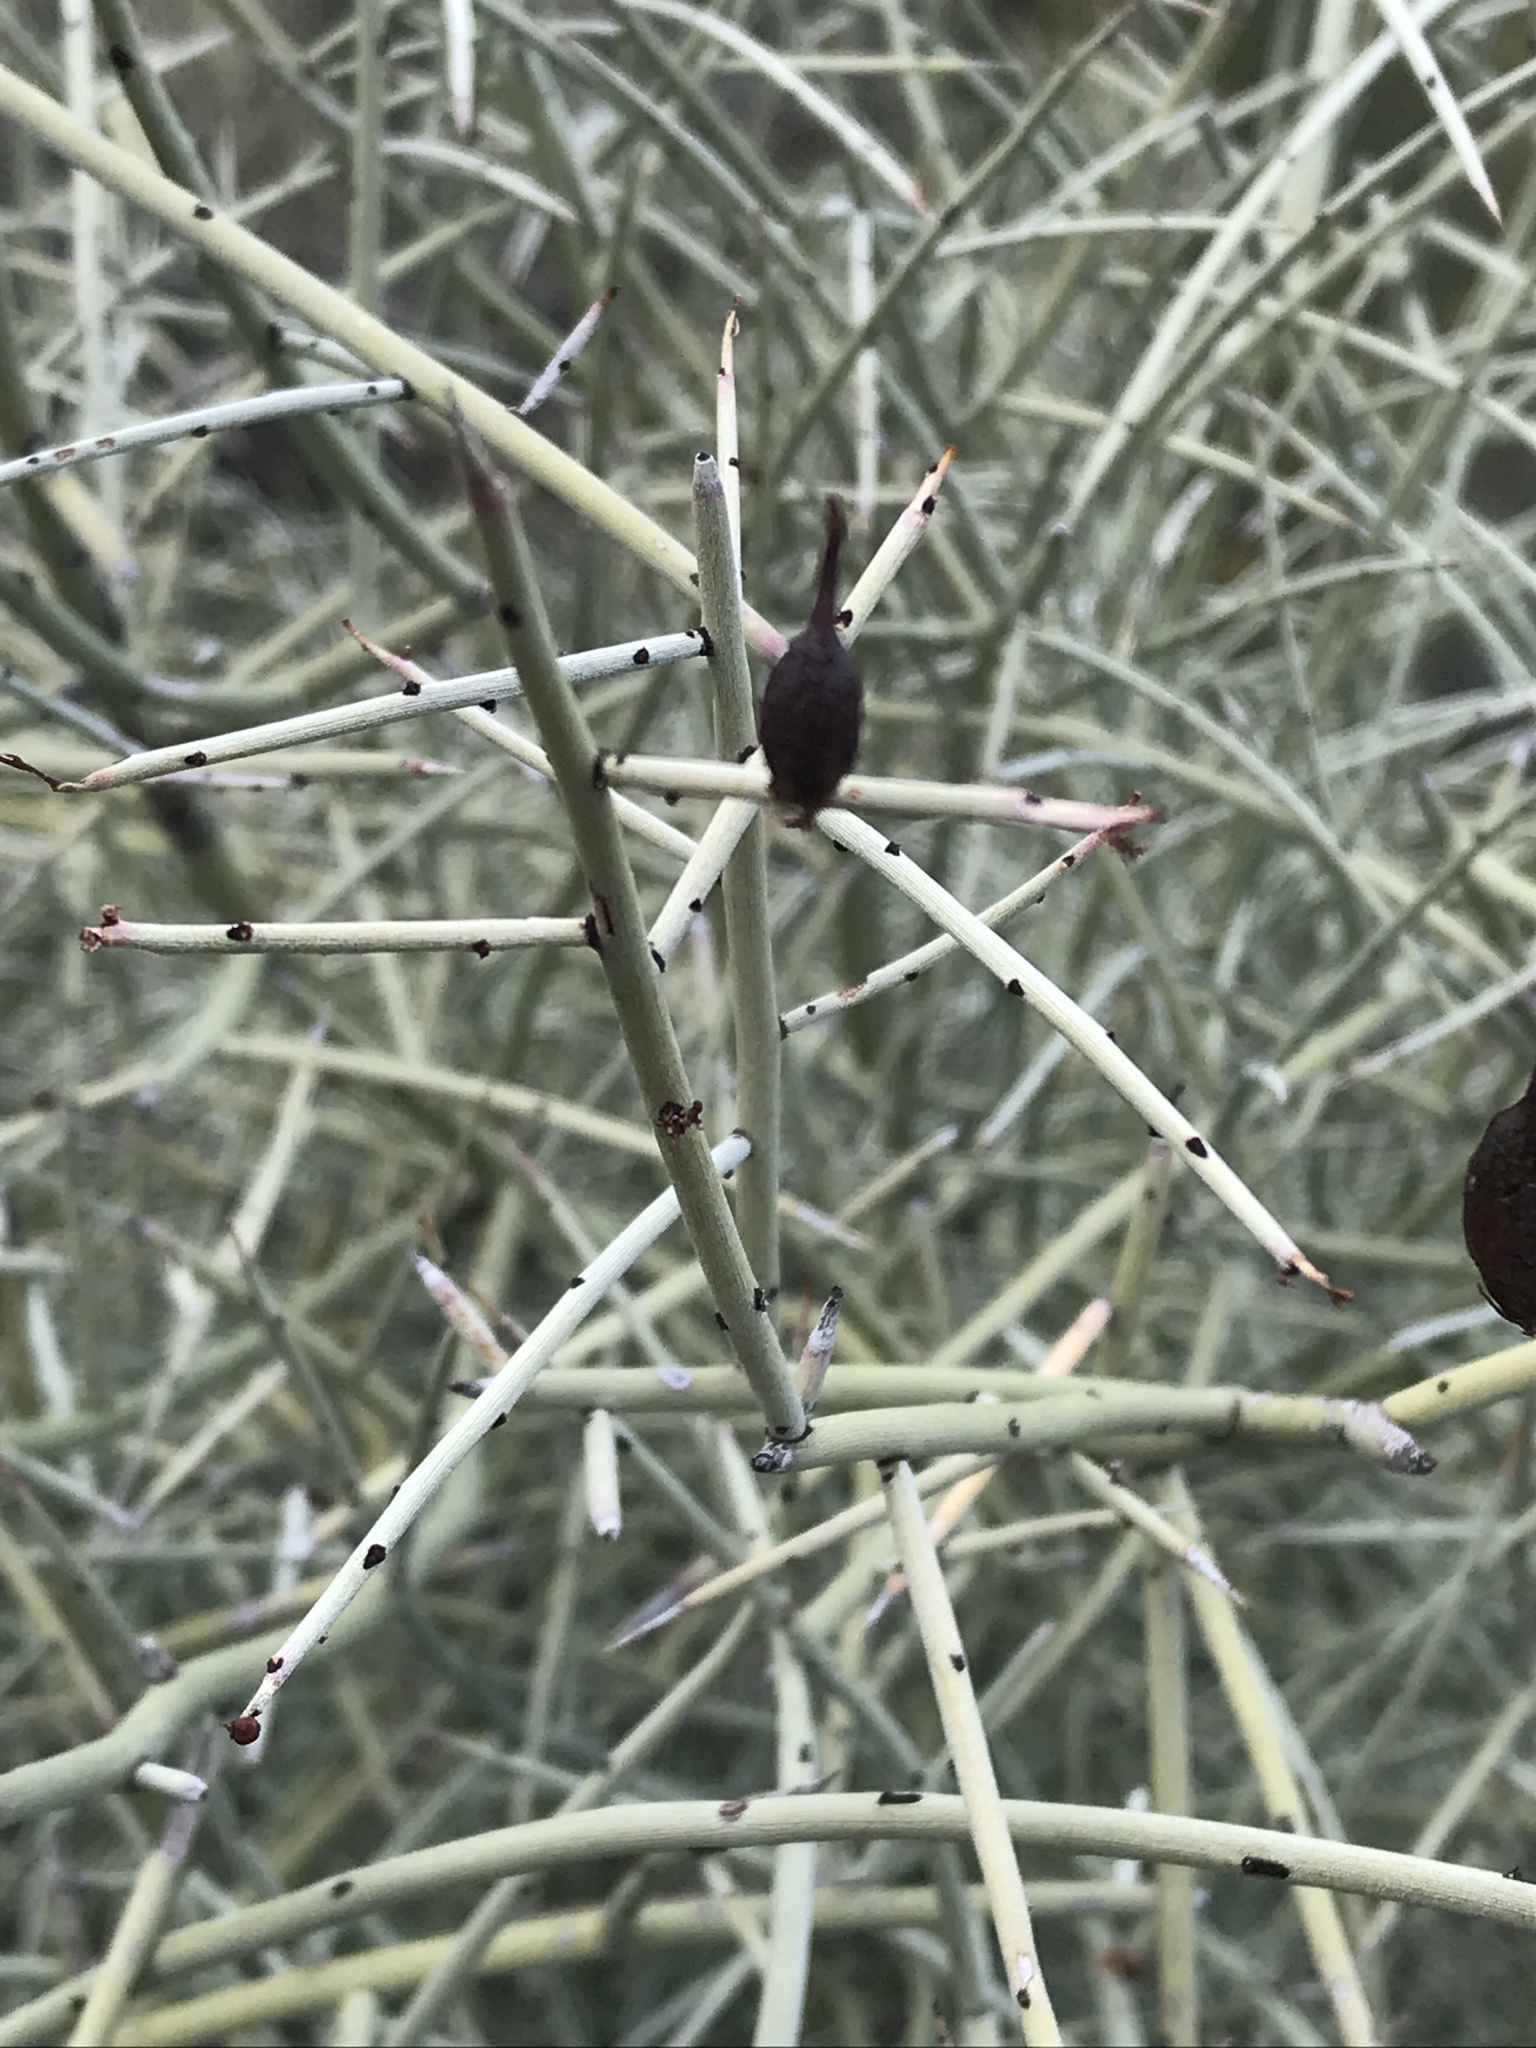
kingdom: Plantae
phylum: Tracheophyta
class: Magnoliopsida
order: Celastrales
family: Celastraceae
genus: Canotia
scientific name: Canotia holacantha
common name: Crucifixion thorns
